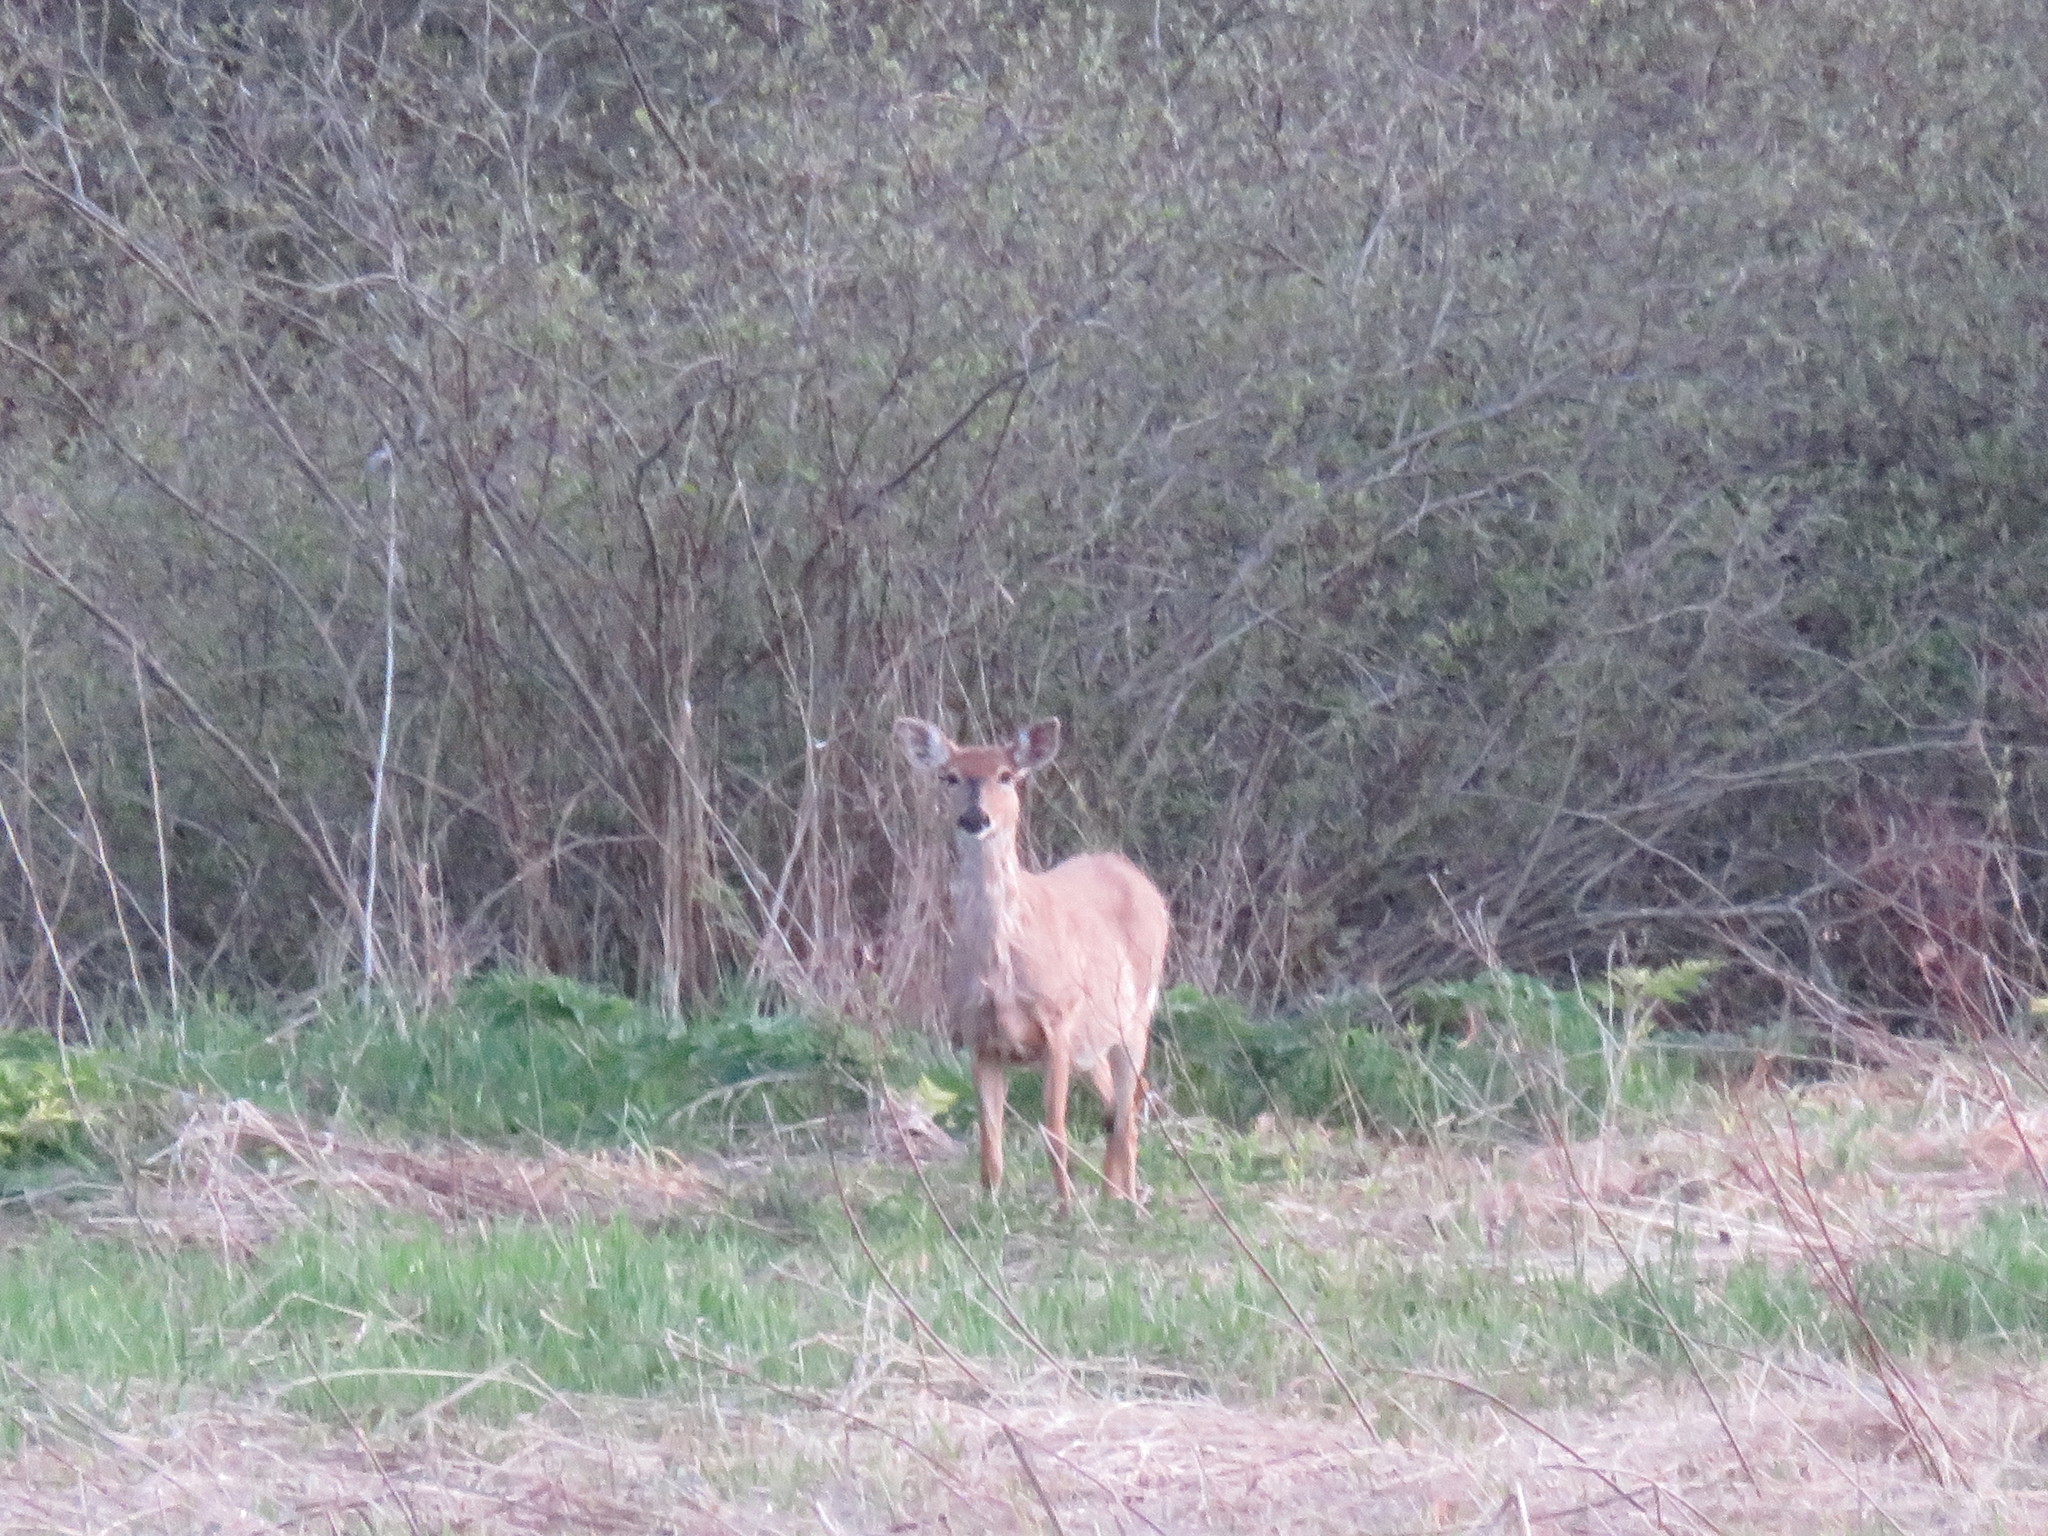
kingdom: Animalia
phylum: Chordata
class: Mammalia
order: Artiodactyla
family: Cervidae
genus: Odocoileus
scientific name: Odocoileus virginianus
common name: White-tailed deer
